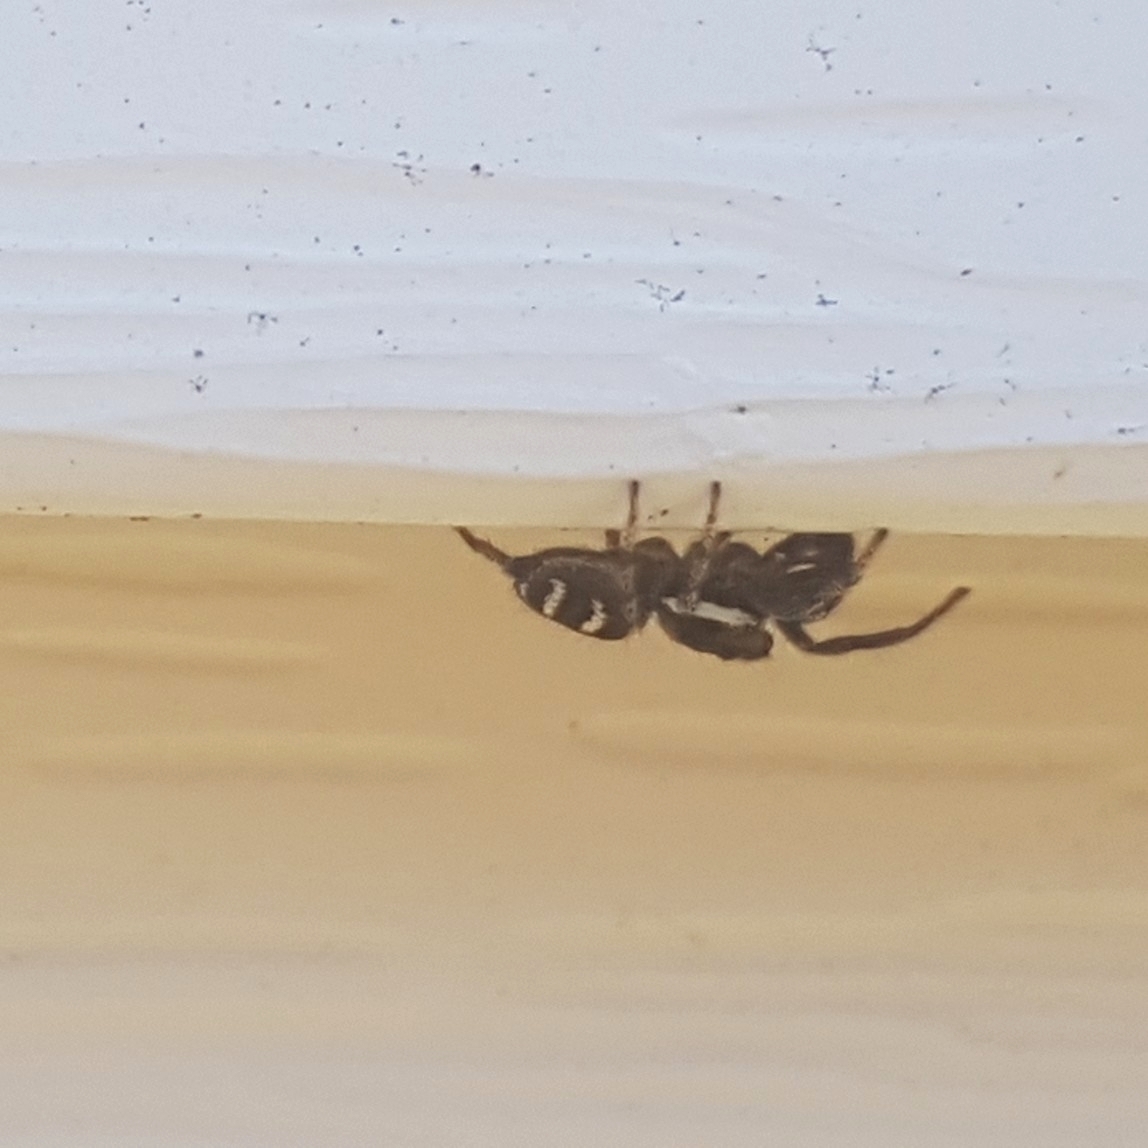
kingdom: Animalia
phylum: Arthropoda
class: Arachnida
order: Araneae
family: Salticidae
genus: Salticus
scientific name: Salticus scenicus
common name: Zebra jumper
